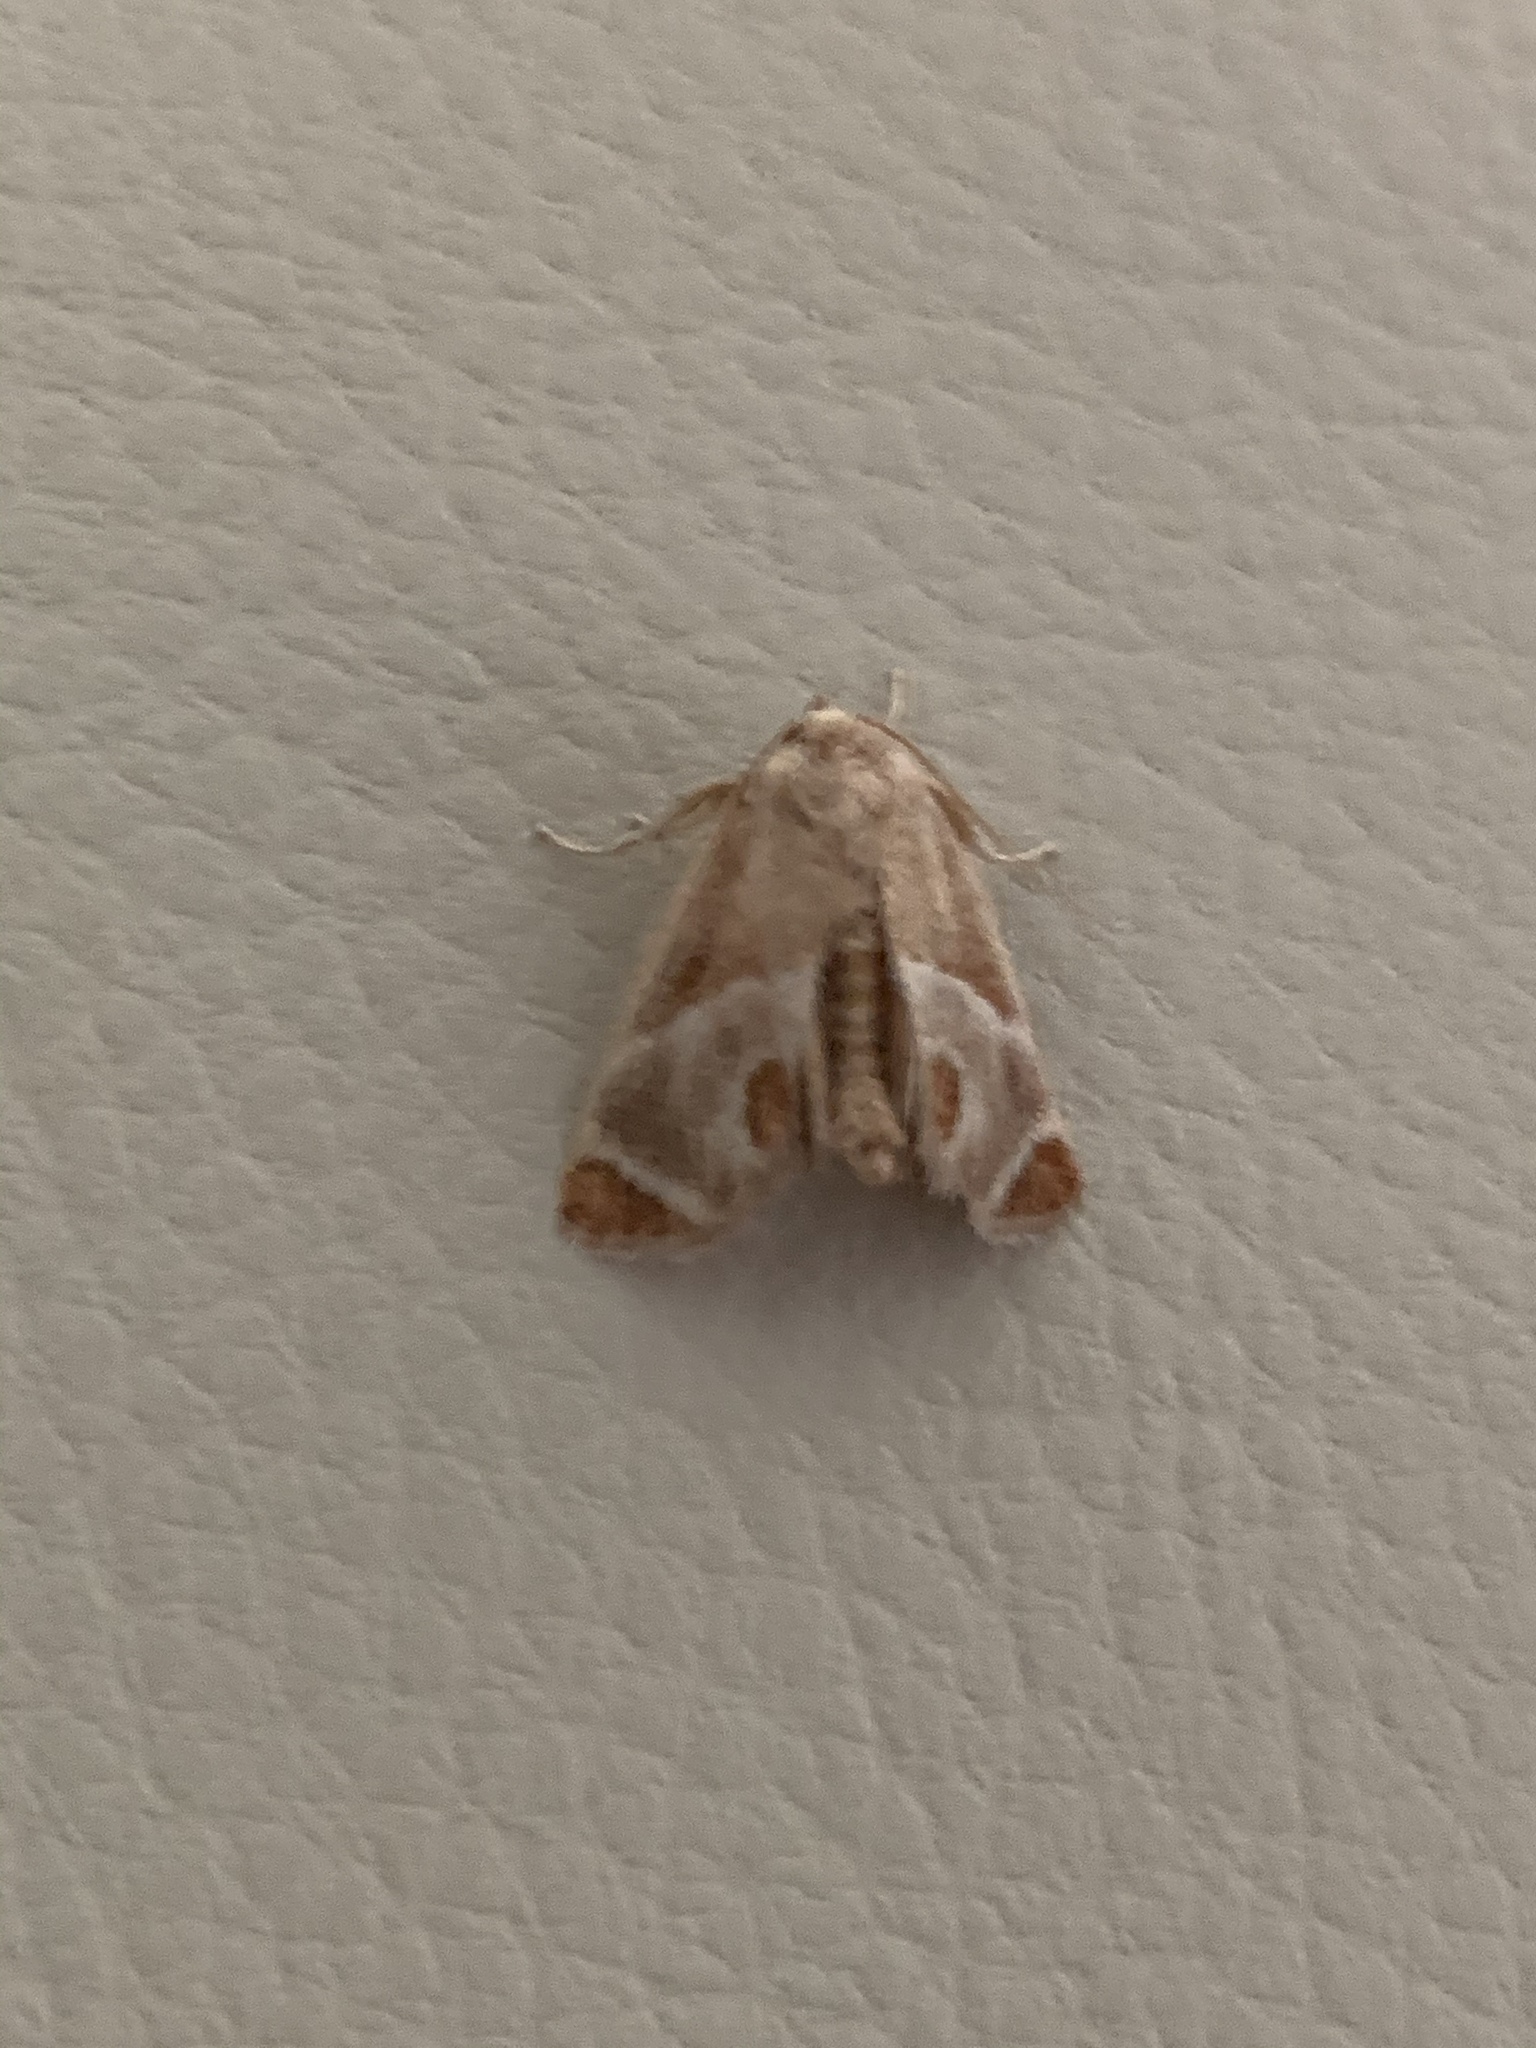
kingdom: Animalia
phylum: Arthropoda
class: Insecta
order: Lepidoptera
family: Limacodidae
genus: Apoda
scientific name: Apoda biguttata
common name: Shagreened slug moth
